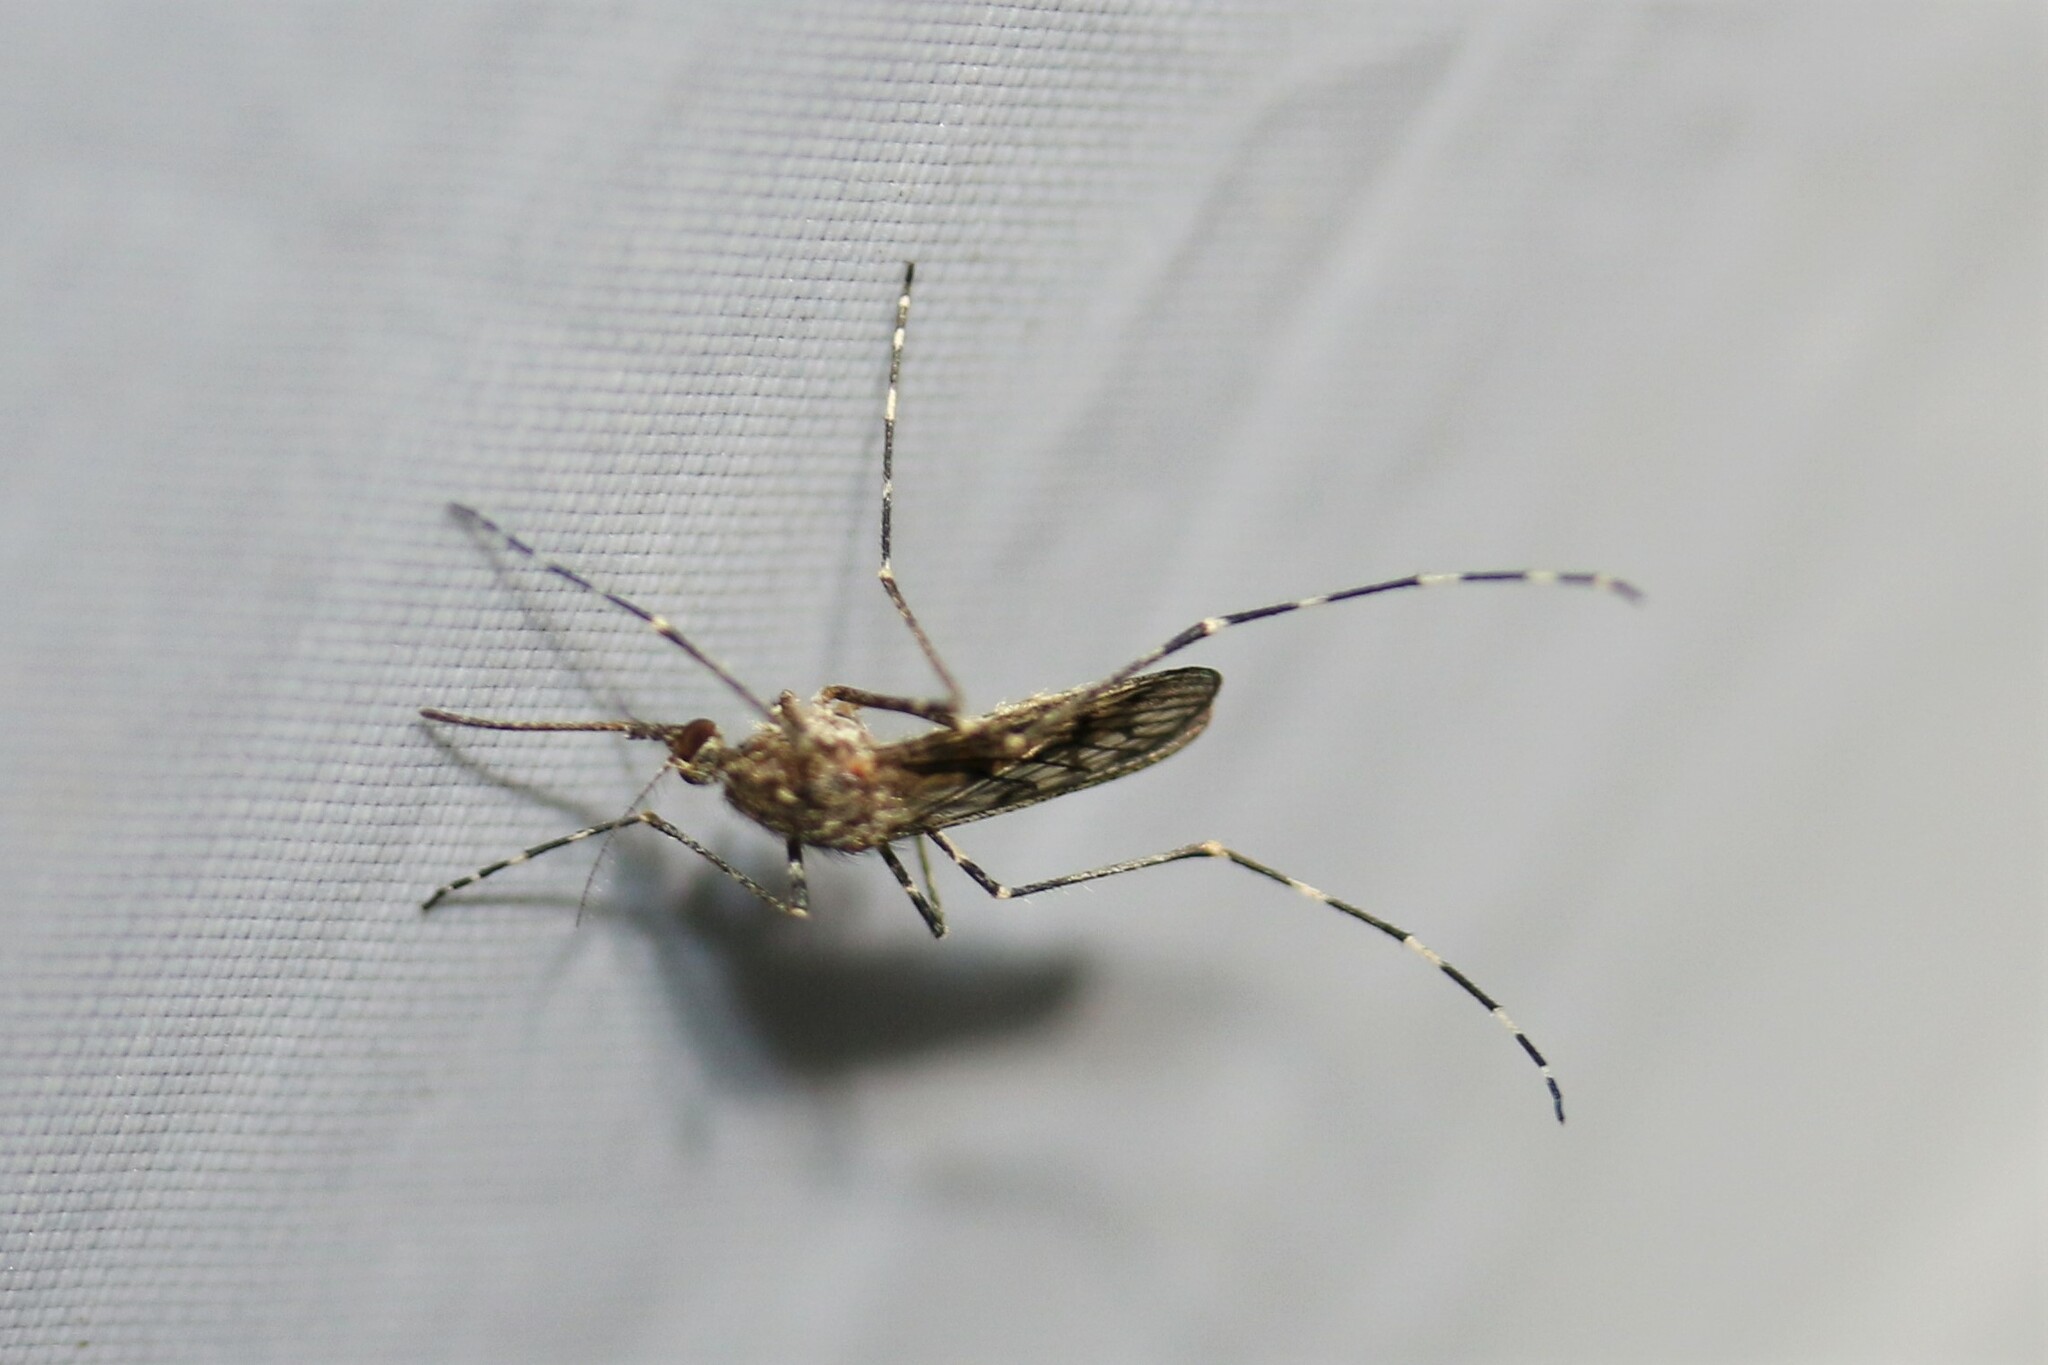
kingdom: Animalia
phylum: Arthropoda
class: Insecta
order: Diptera
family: Culicidae
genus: Culiseta
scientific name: Culiseta annulata
